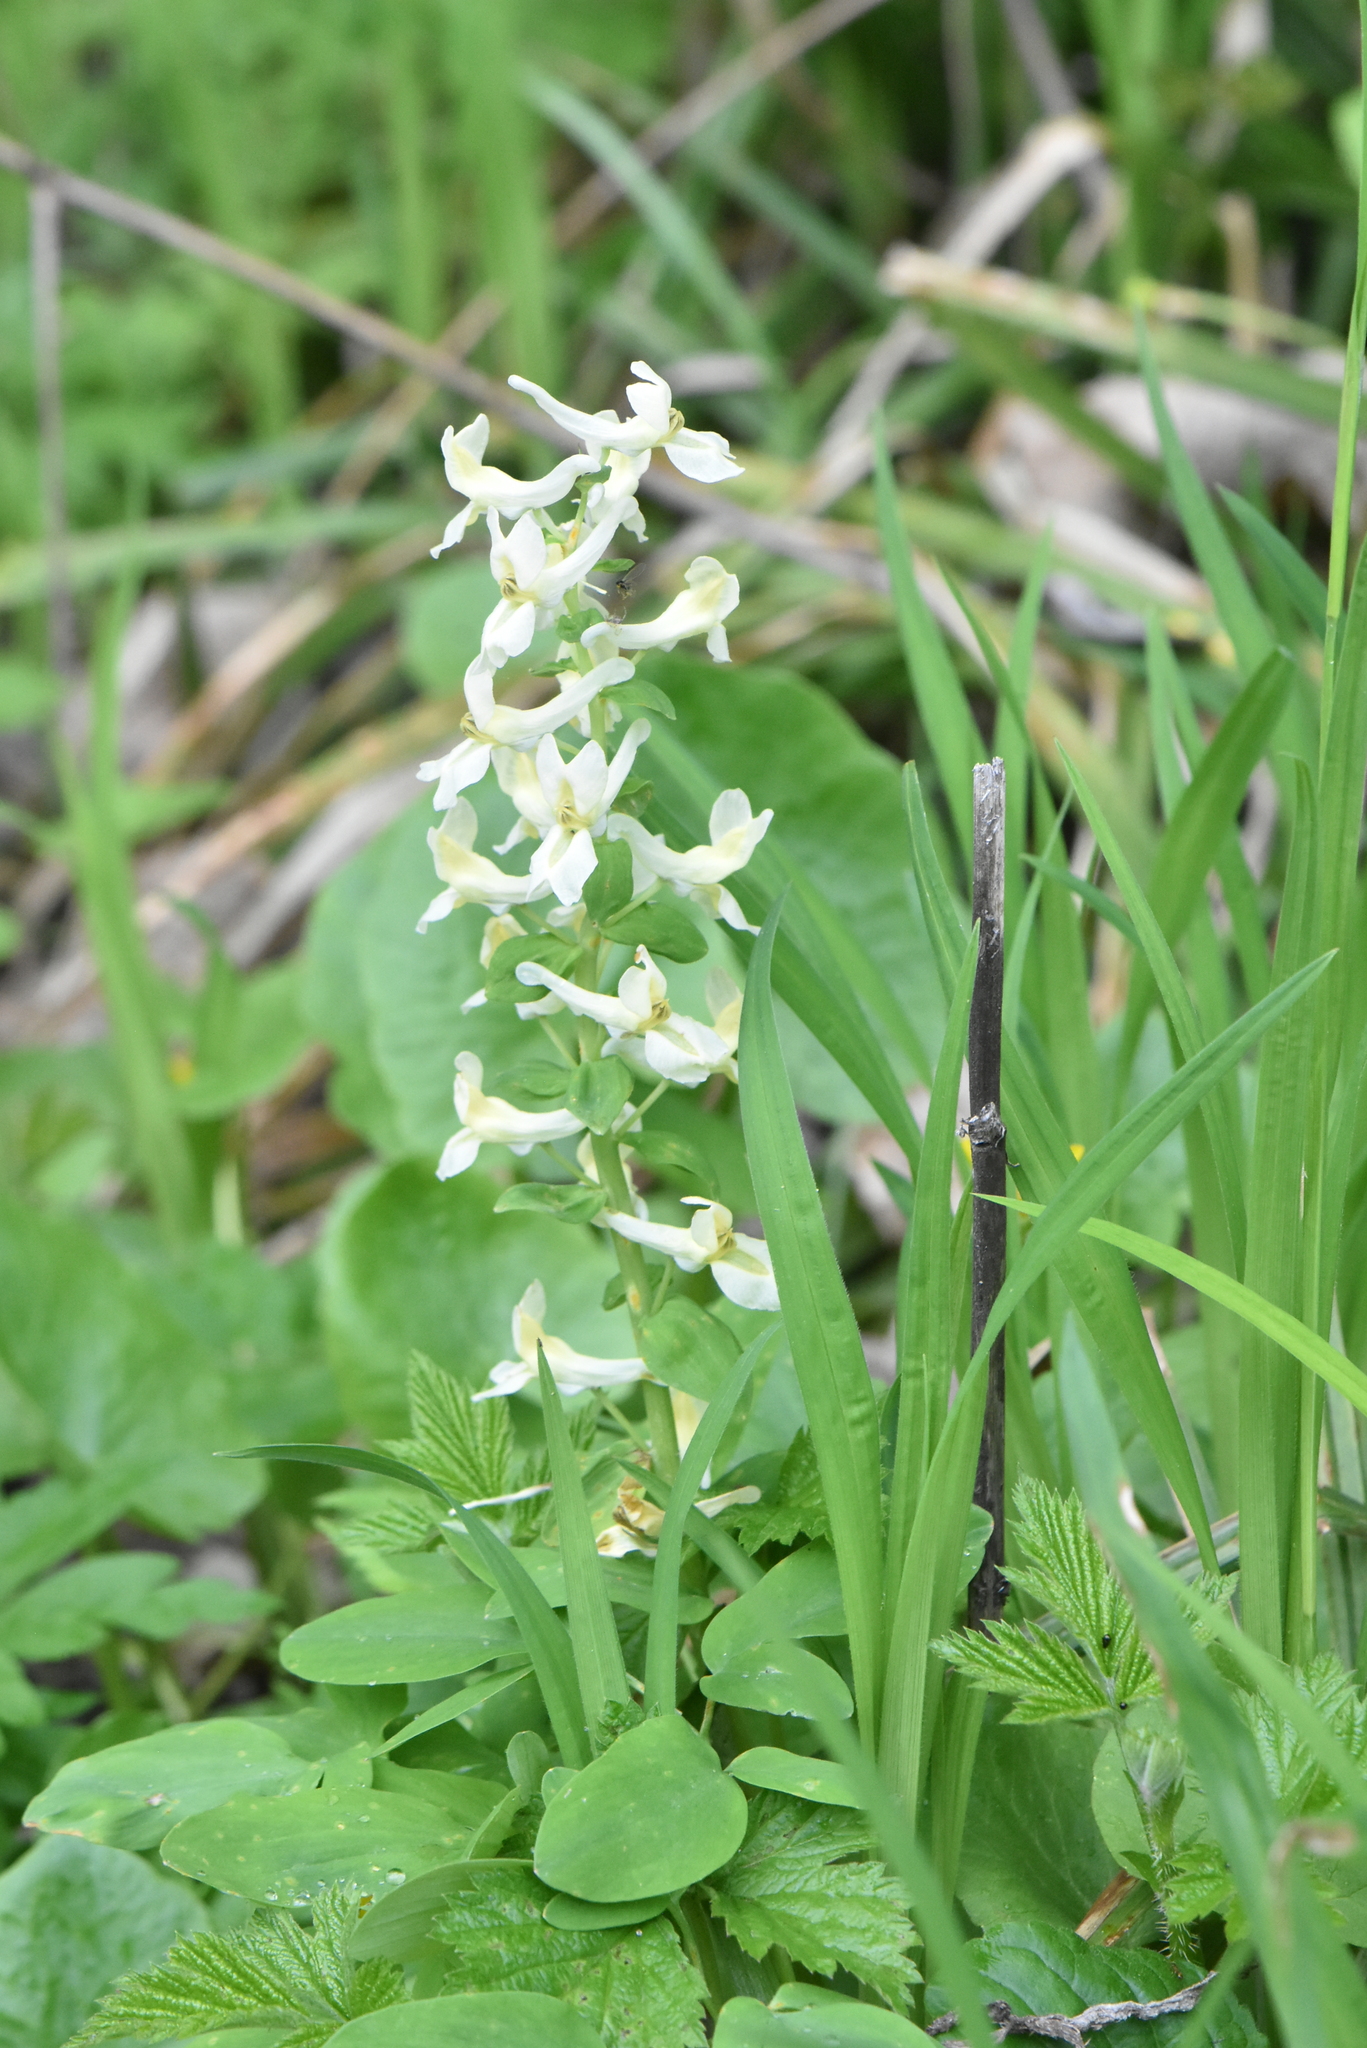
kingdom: Plantae
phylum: Tracheophyta
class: Magnoliopsida
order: Ranunculales
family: Papaveraceae
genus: Corydalis
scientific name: Corydalis cava
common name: Hollowroot
